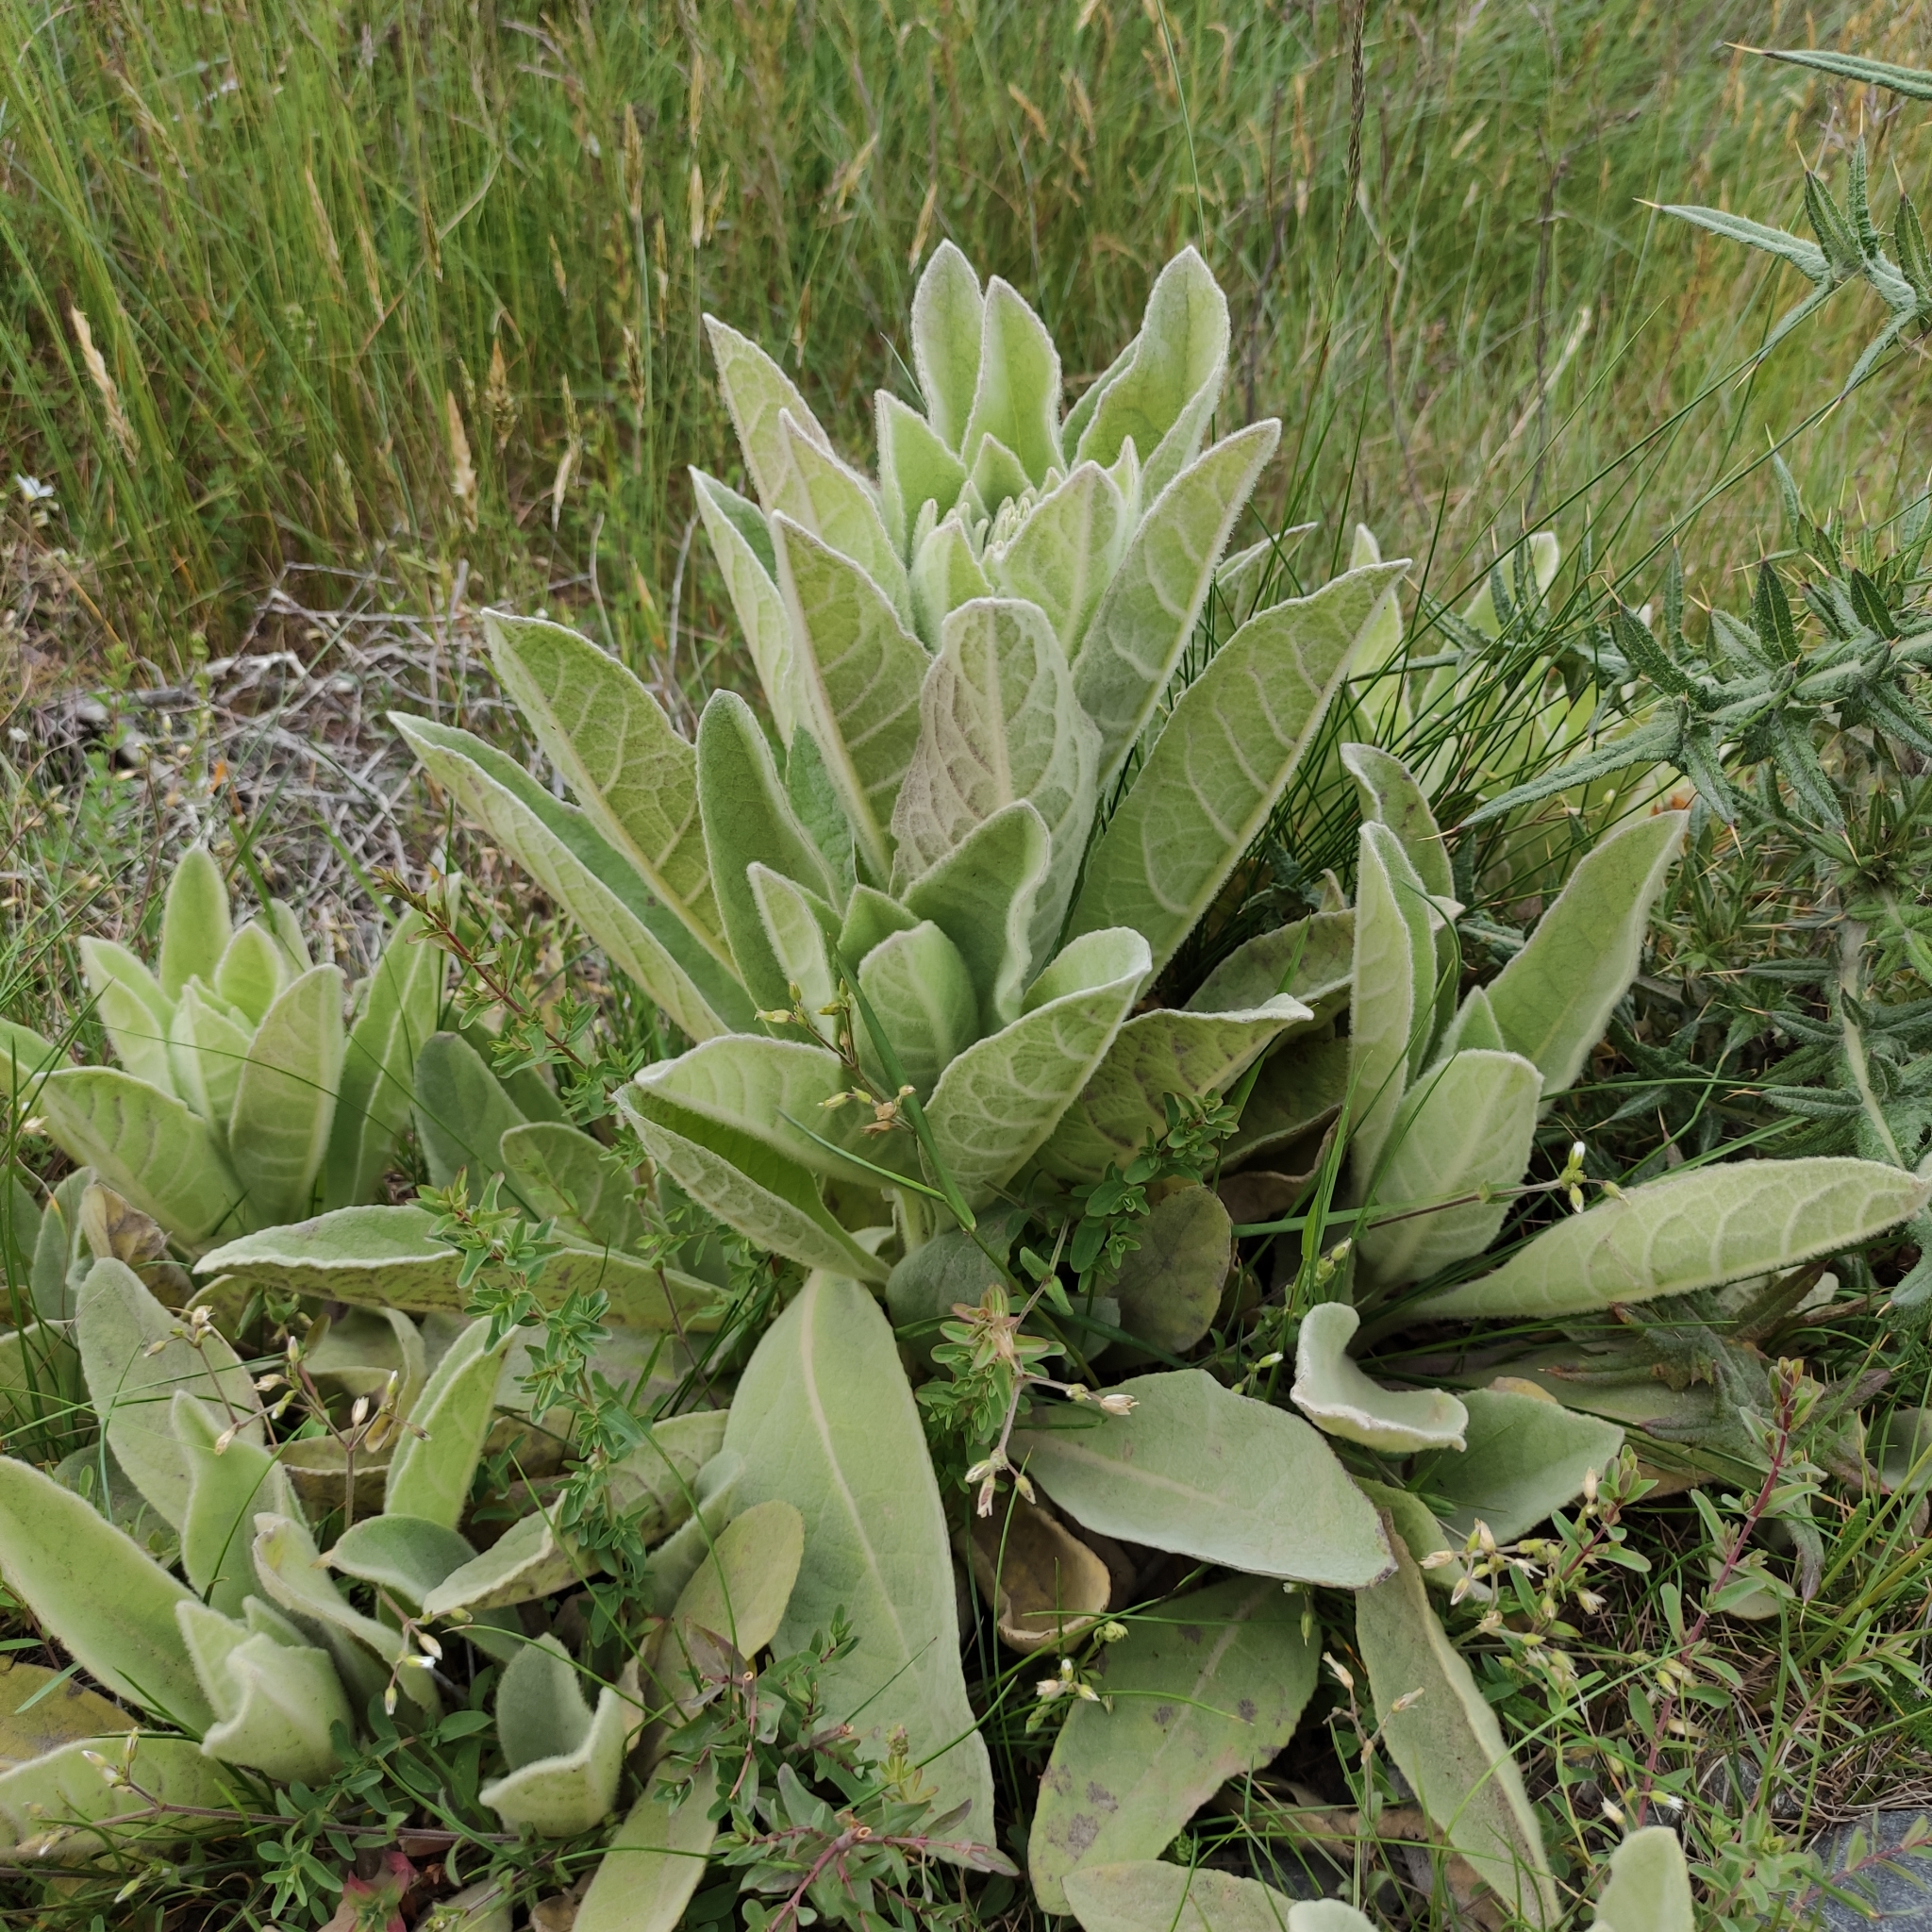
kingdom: Plantae
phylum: Tracheophyta
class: Magnoliopsida
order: Lamiales
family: Scrophulariaceae
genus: Verbascum
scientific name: Verbascum thapsus
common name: Common mullein
